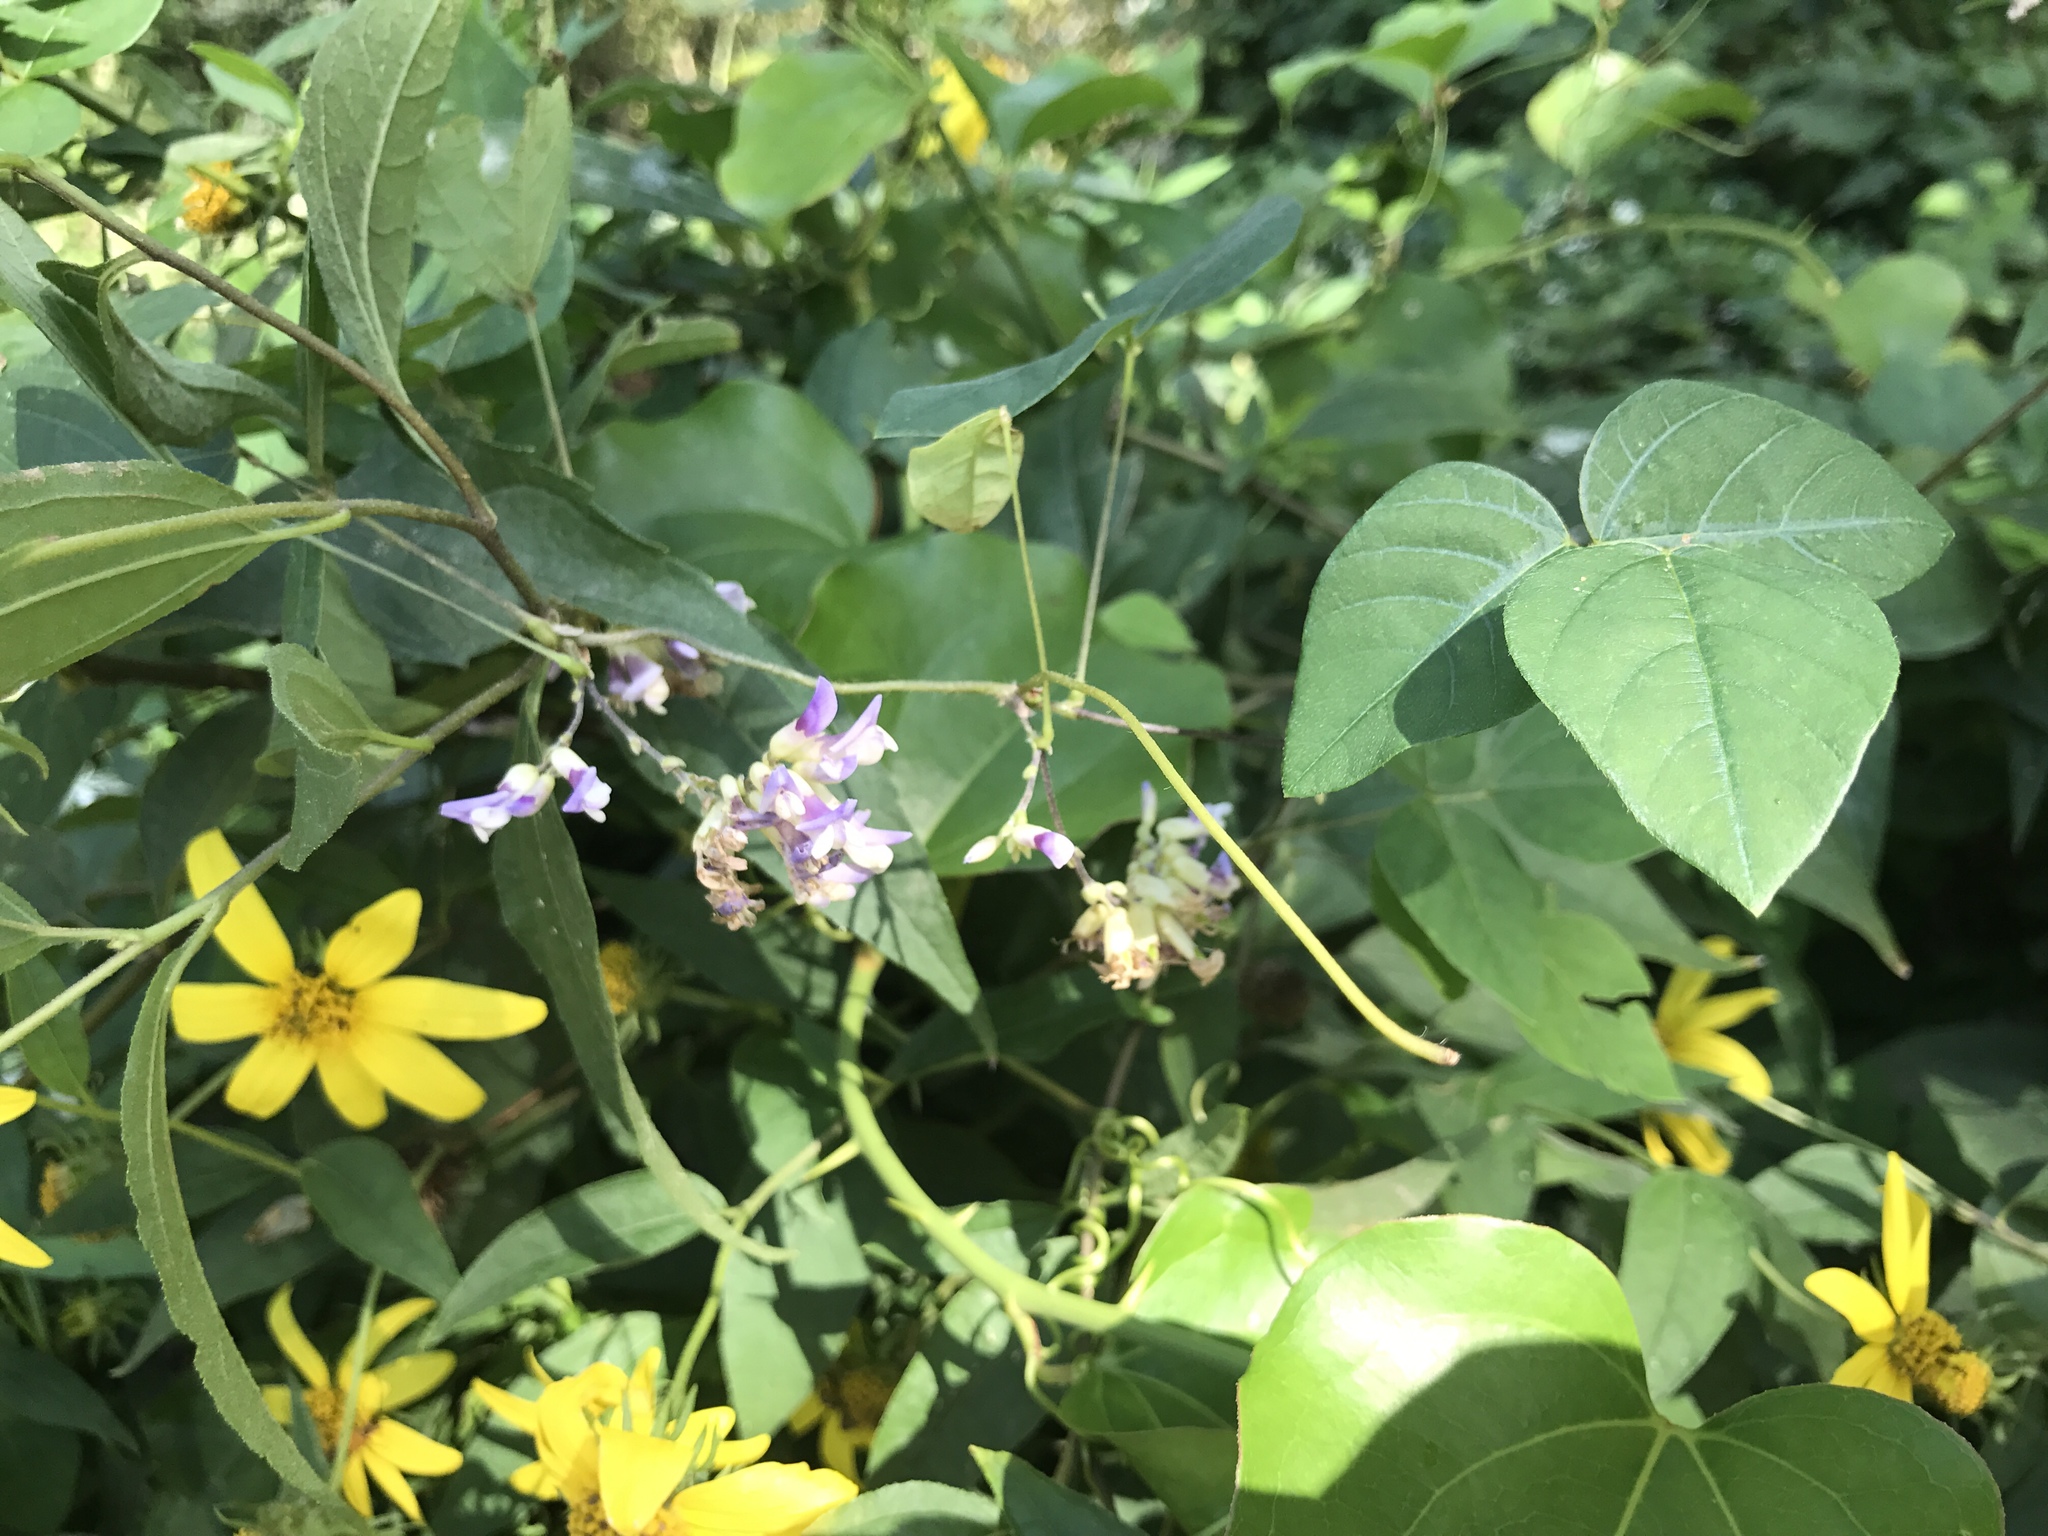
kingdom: Plantae
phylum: Tracheophyta
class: Magnoliopsida
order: Fabales
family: Fabaceae
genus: Amphicarpaea
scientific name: Amphicarpaea bracteata
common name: American hog peanut
